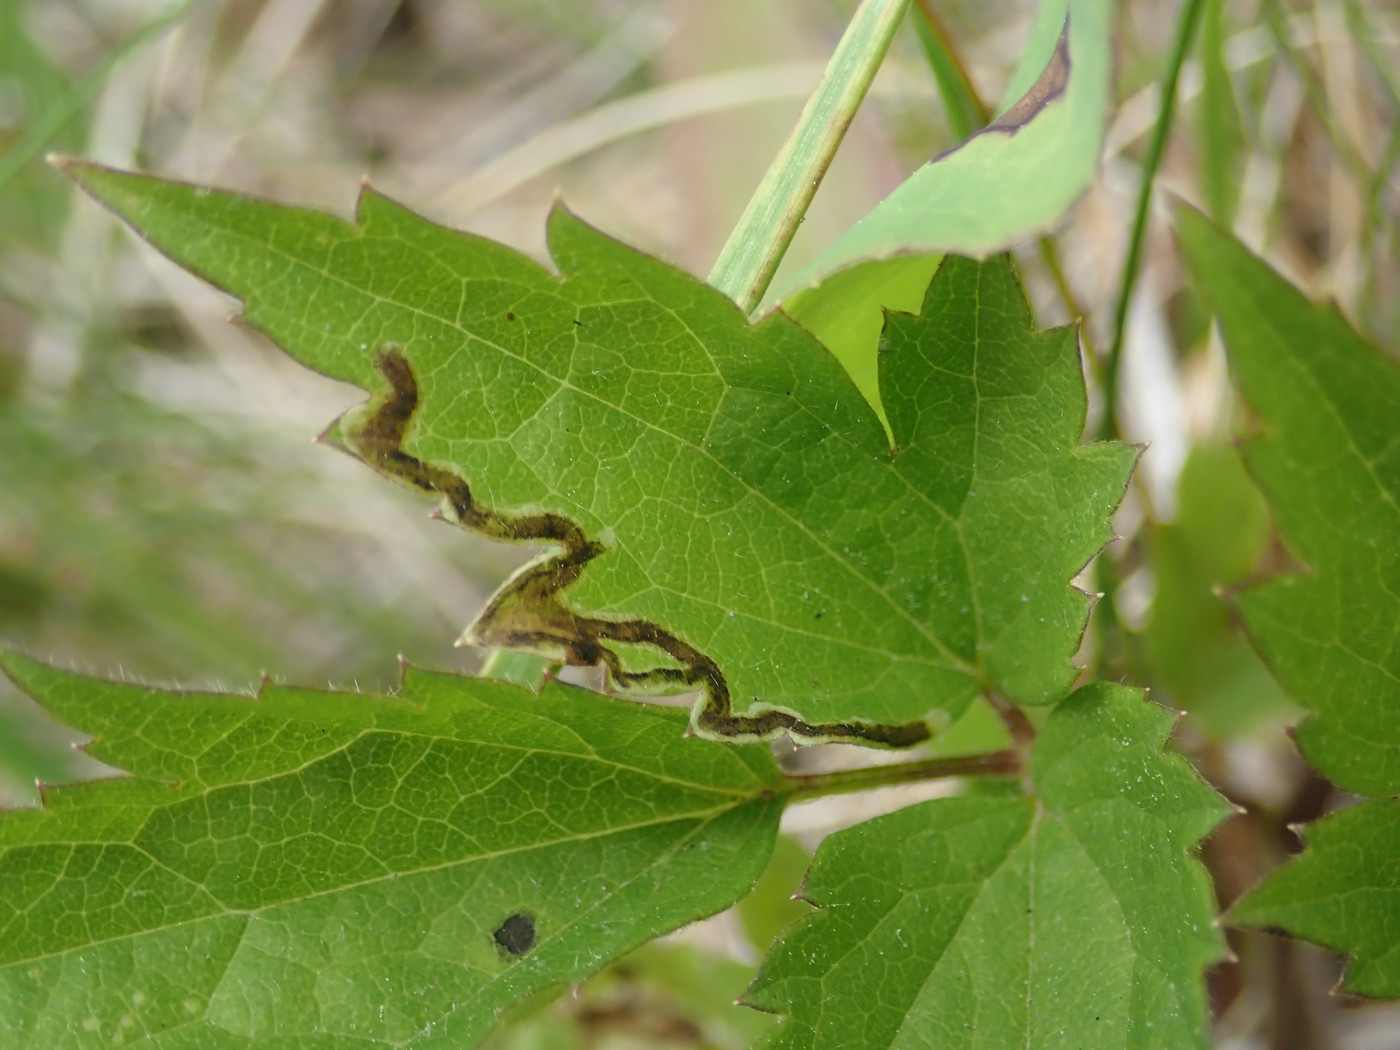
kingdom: Animalia
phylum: Arthropoda
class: Insecta
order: Diptera
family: Agromyzidae
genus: Phytomyza
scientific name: Phytomyza loewii
